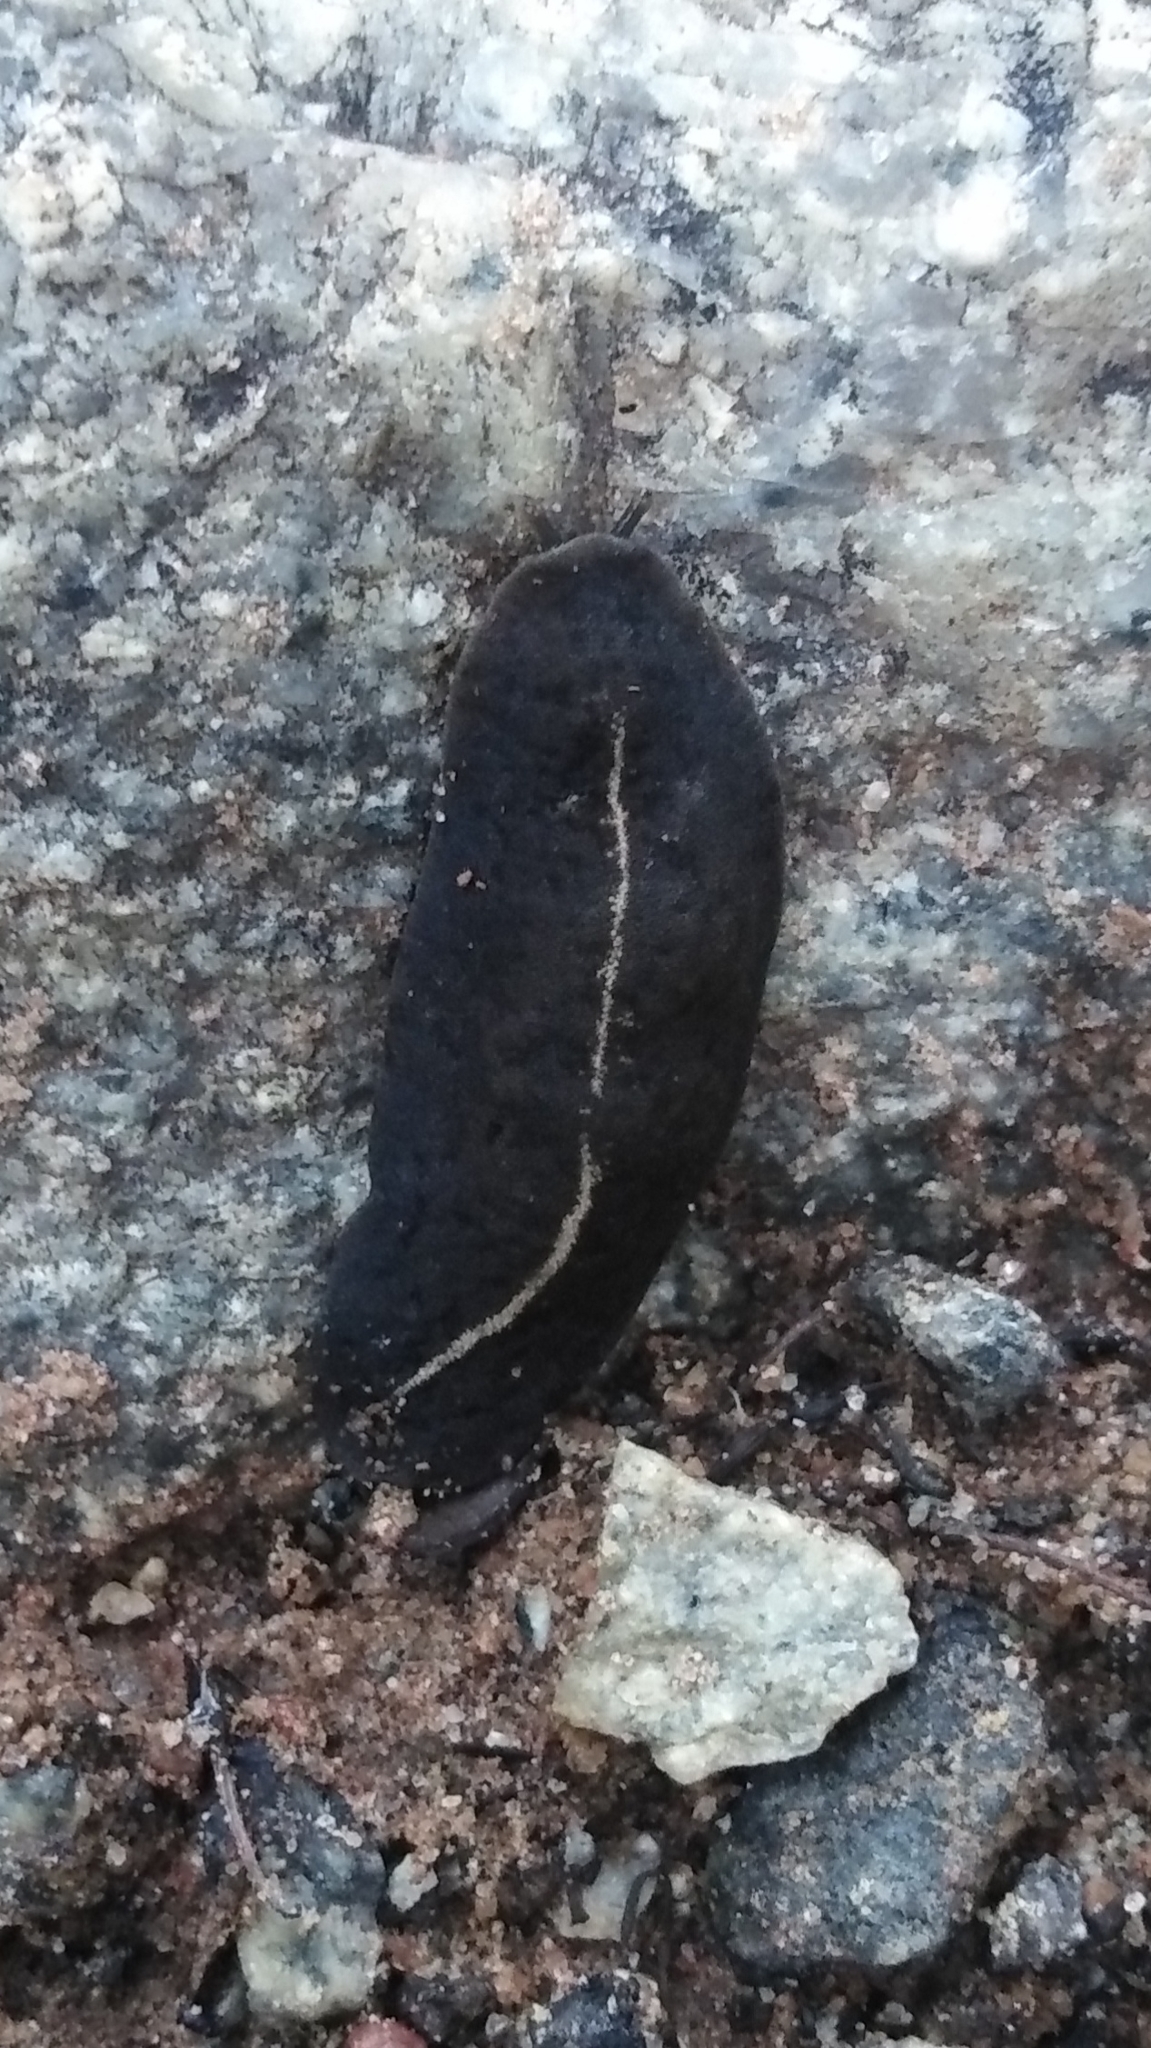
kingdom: Animalia
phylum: Mollusca
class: Gastropoda
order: Systellommatophora
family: Veronicellidae
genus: Laevicaulis
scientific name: Laevicaulis alte
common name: Tropical leatherleaf
